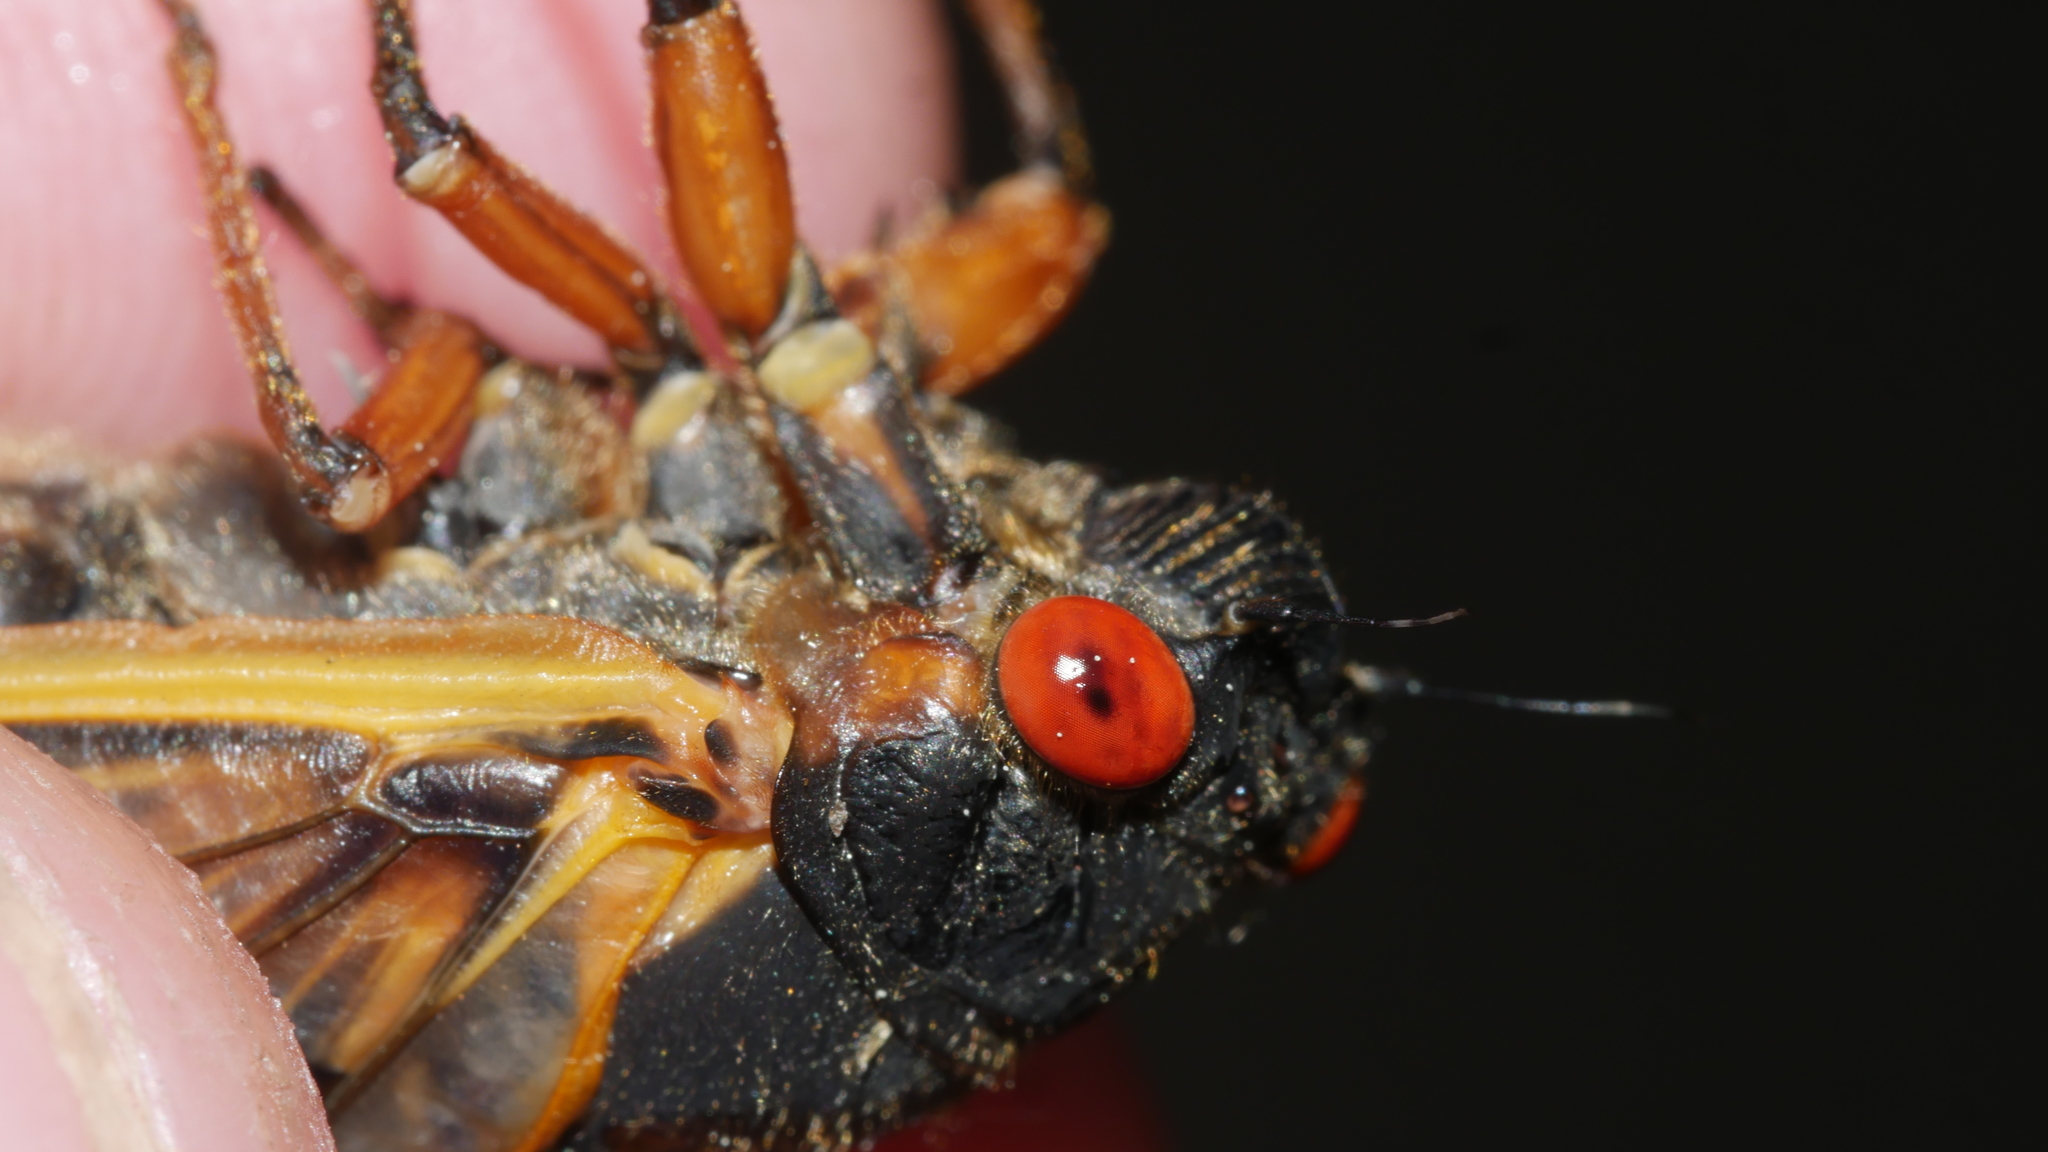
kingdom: Animalia
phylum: Arthropoda
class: Insecta
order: Hemiptera
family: Cicadidae
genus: Magicicada
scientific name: Magicicada septendecim
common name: Periodical cicada
